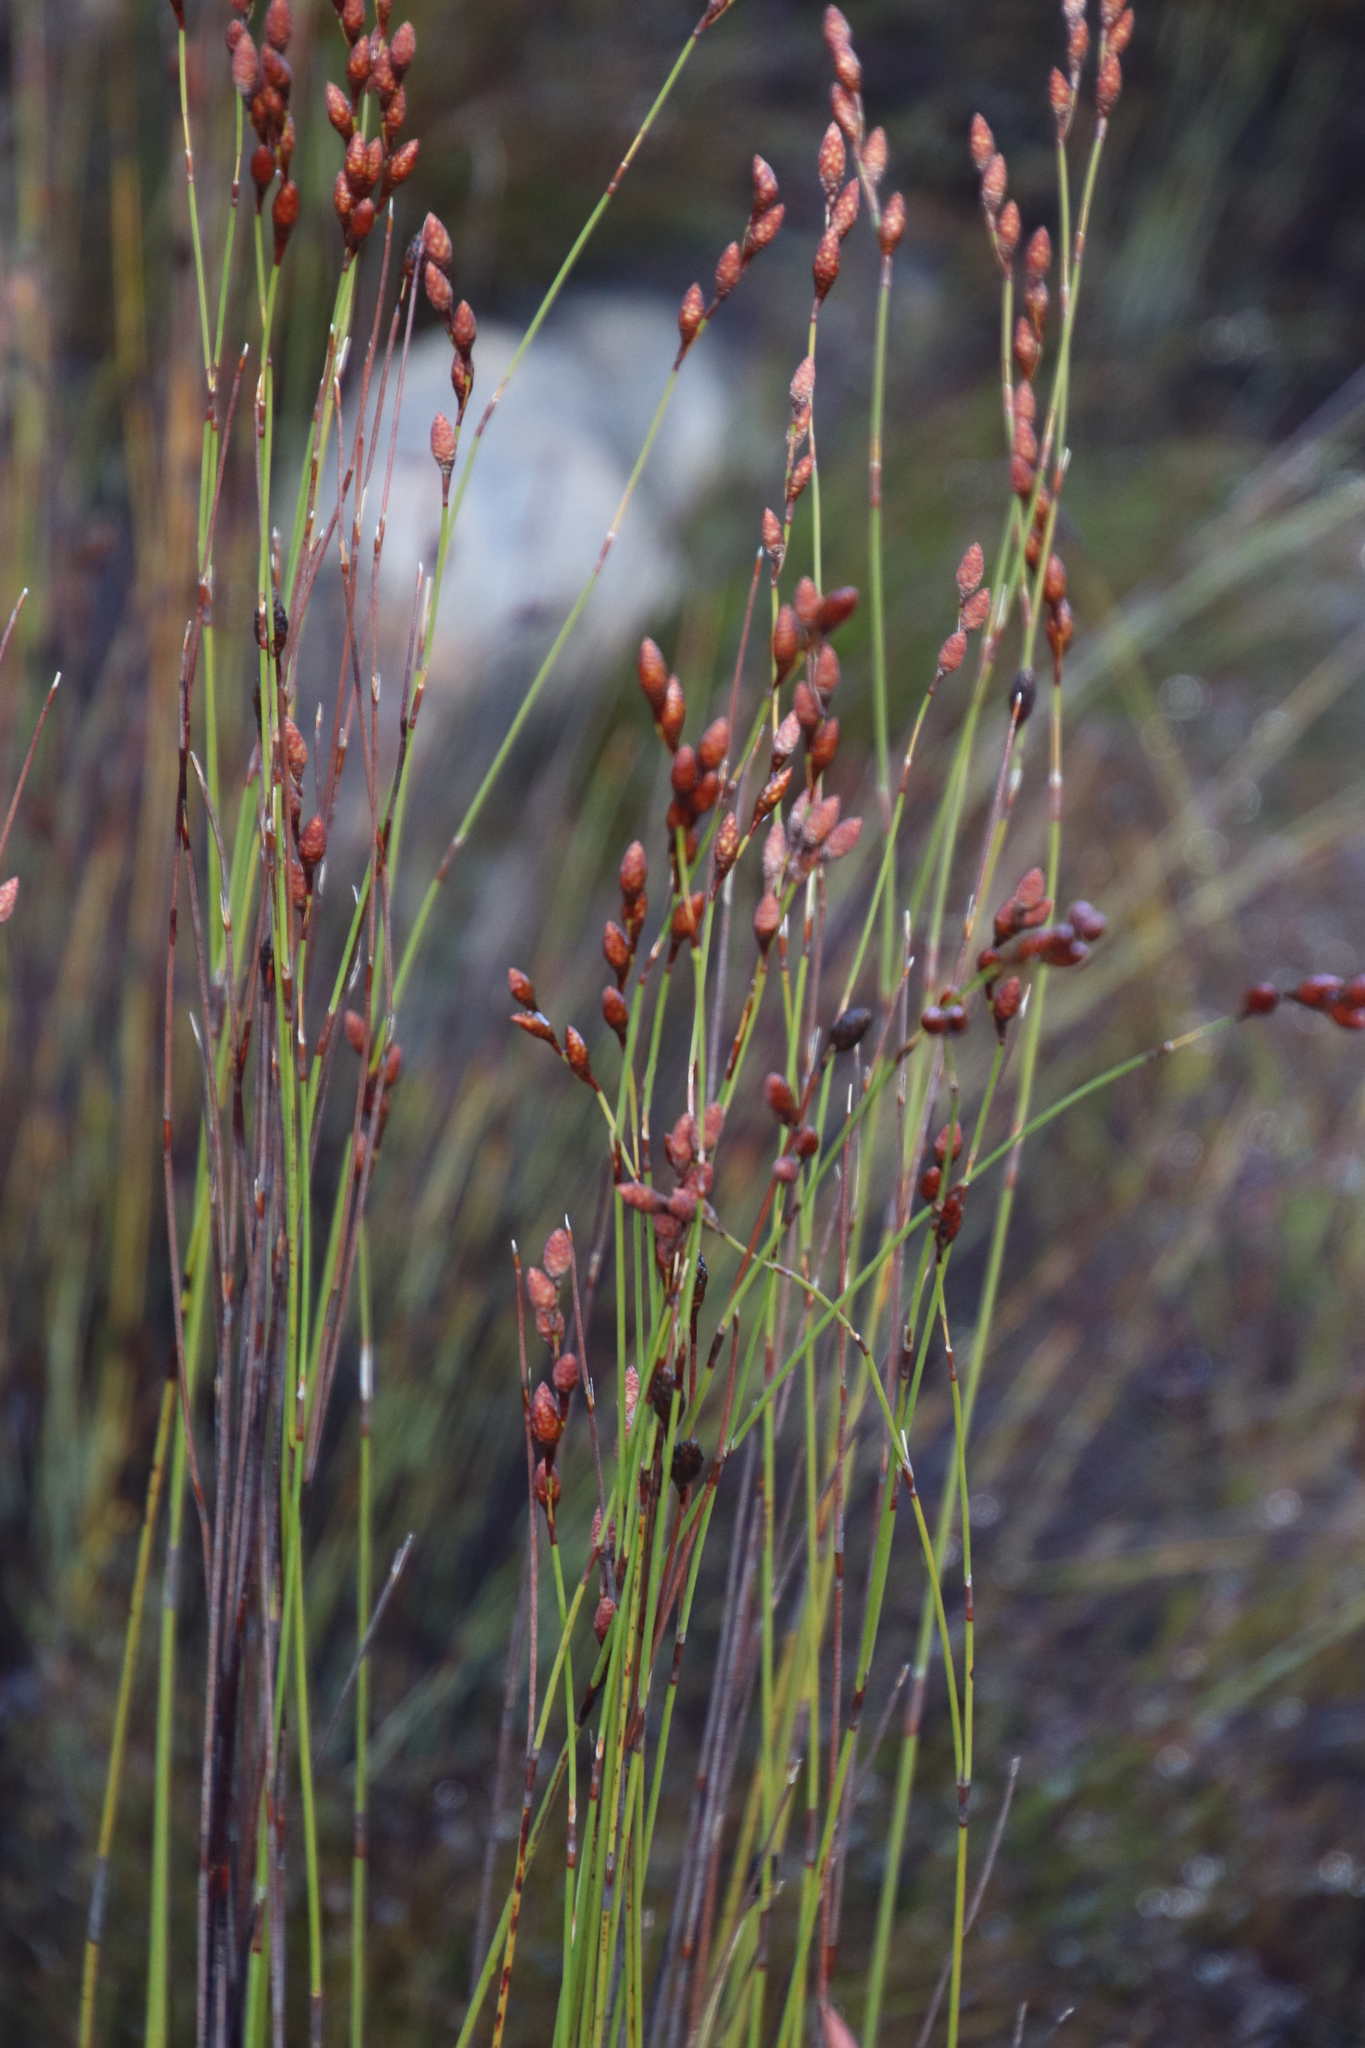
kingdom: Plantae
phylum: Tracheophyta
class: Liliopsida
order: Poales
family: Restionaceae
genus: Restio
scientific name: Restio strobilifer
